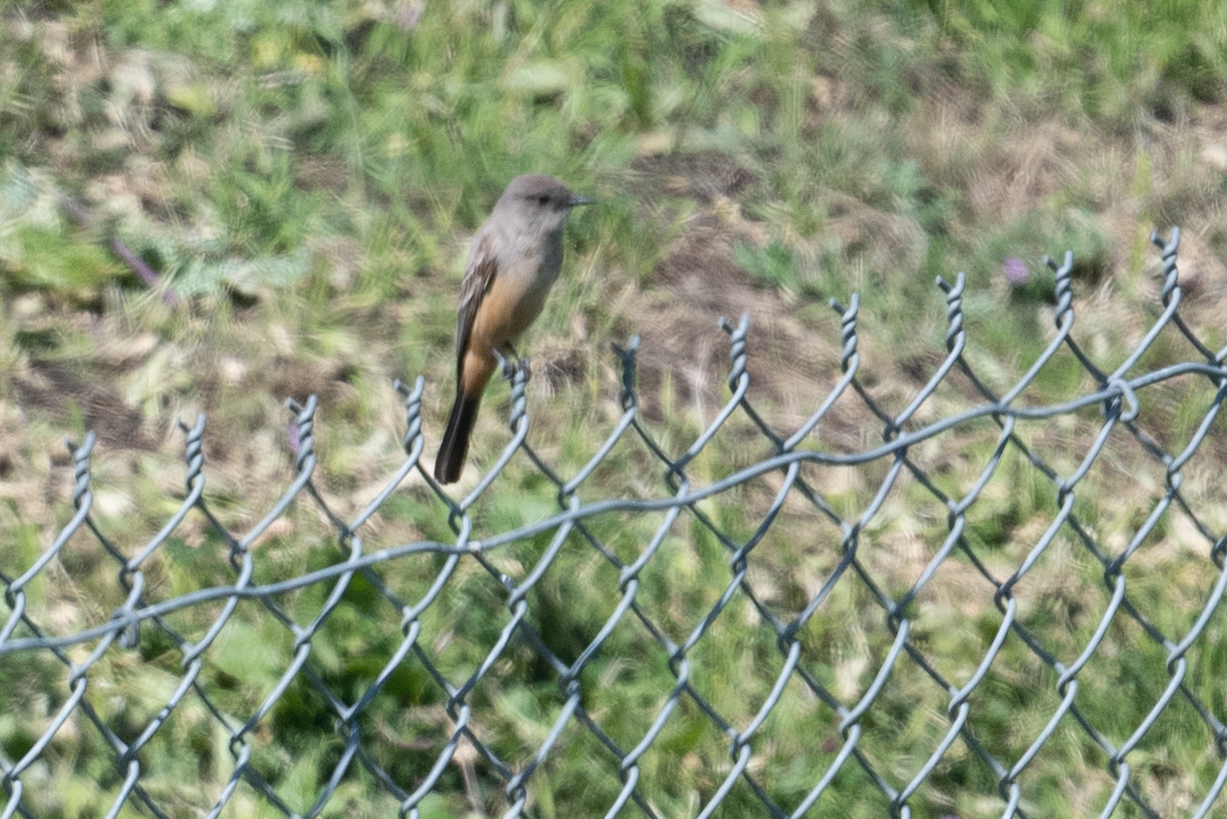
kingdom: Animalia
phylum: Chordata
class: Aves
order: Passeriformes
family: Tyrannidae
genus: Sayornis
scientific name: Sayornis saya
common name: Say's phoebe
